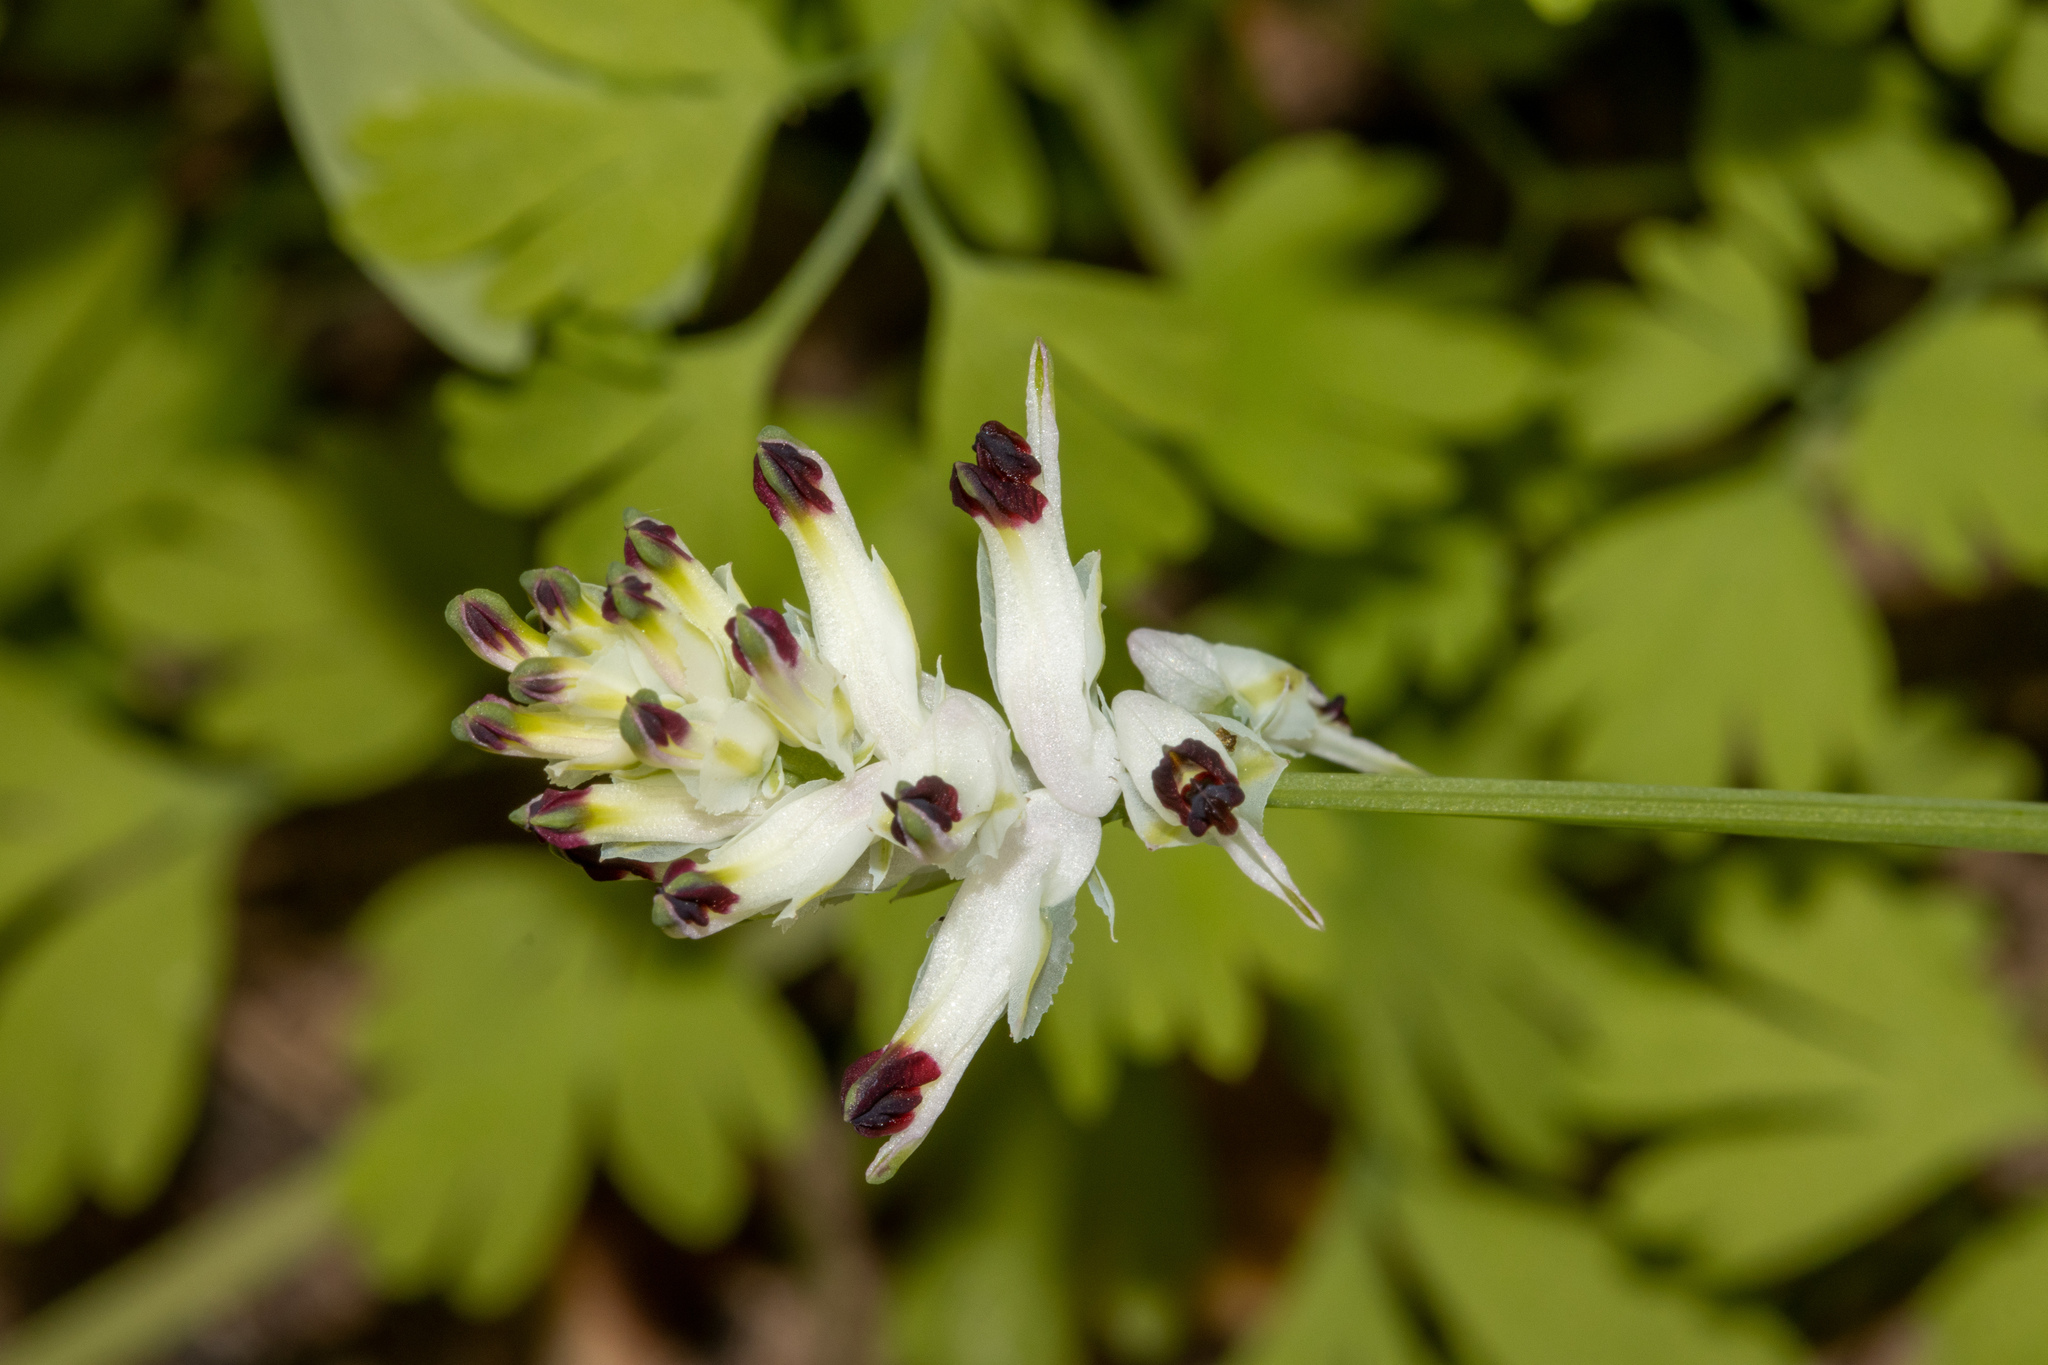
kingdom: Plantae
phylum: Tracheophyta
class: Magnoliopsida
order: Ranunculales
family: Papaveraceae
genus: Fumaria
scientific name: Fumaria capreolata
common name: White ramping-fumitory
